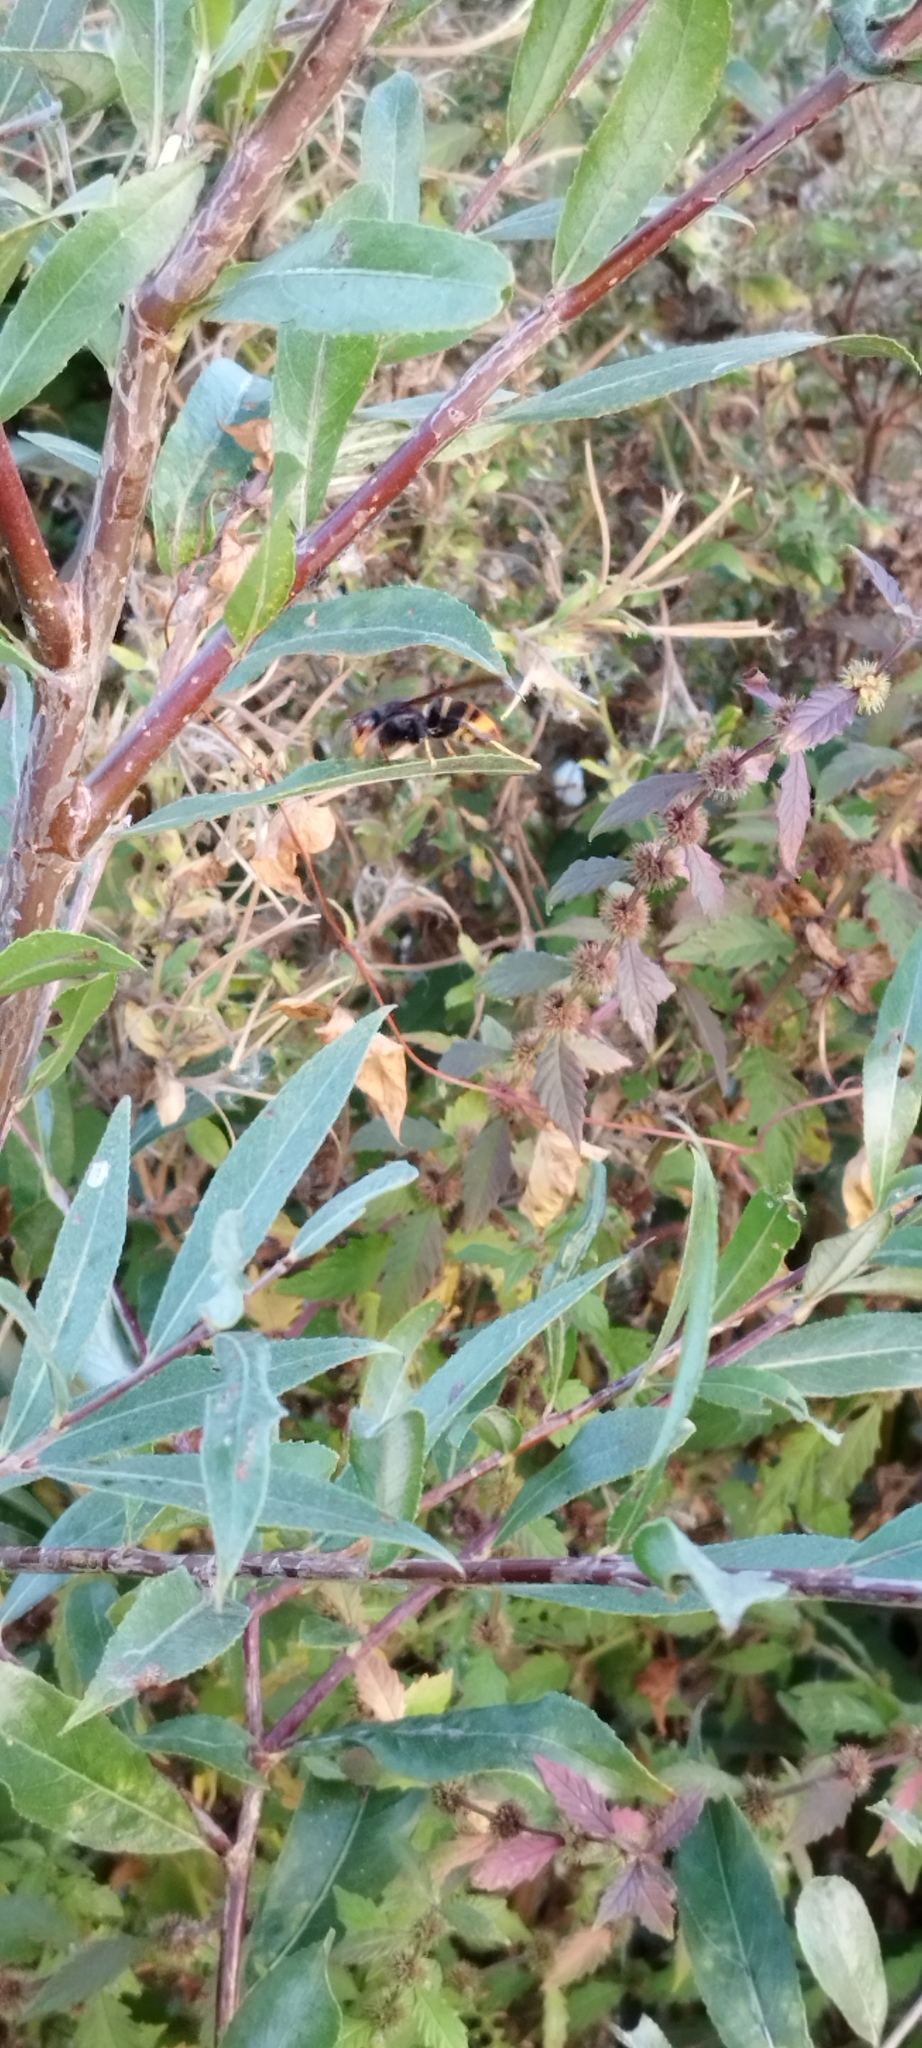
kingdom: Animalia
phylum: Arthropoda
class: Insecta
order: Hymenoptera
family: Vespidae
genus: Vespa
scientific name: Vespa velutina
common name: Asian hornet
